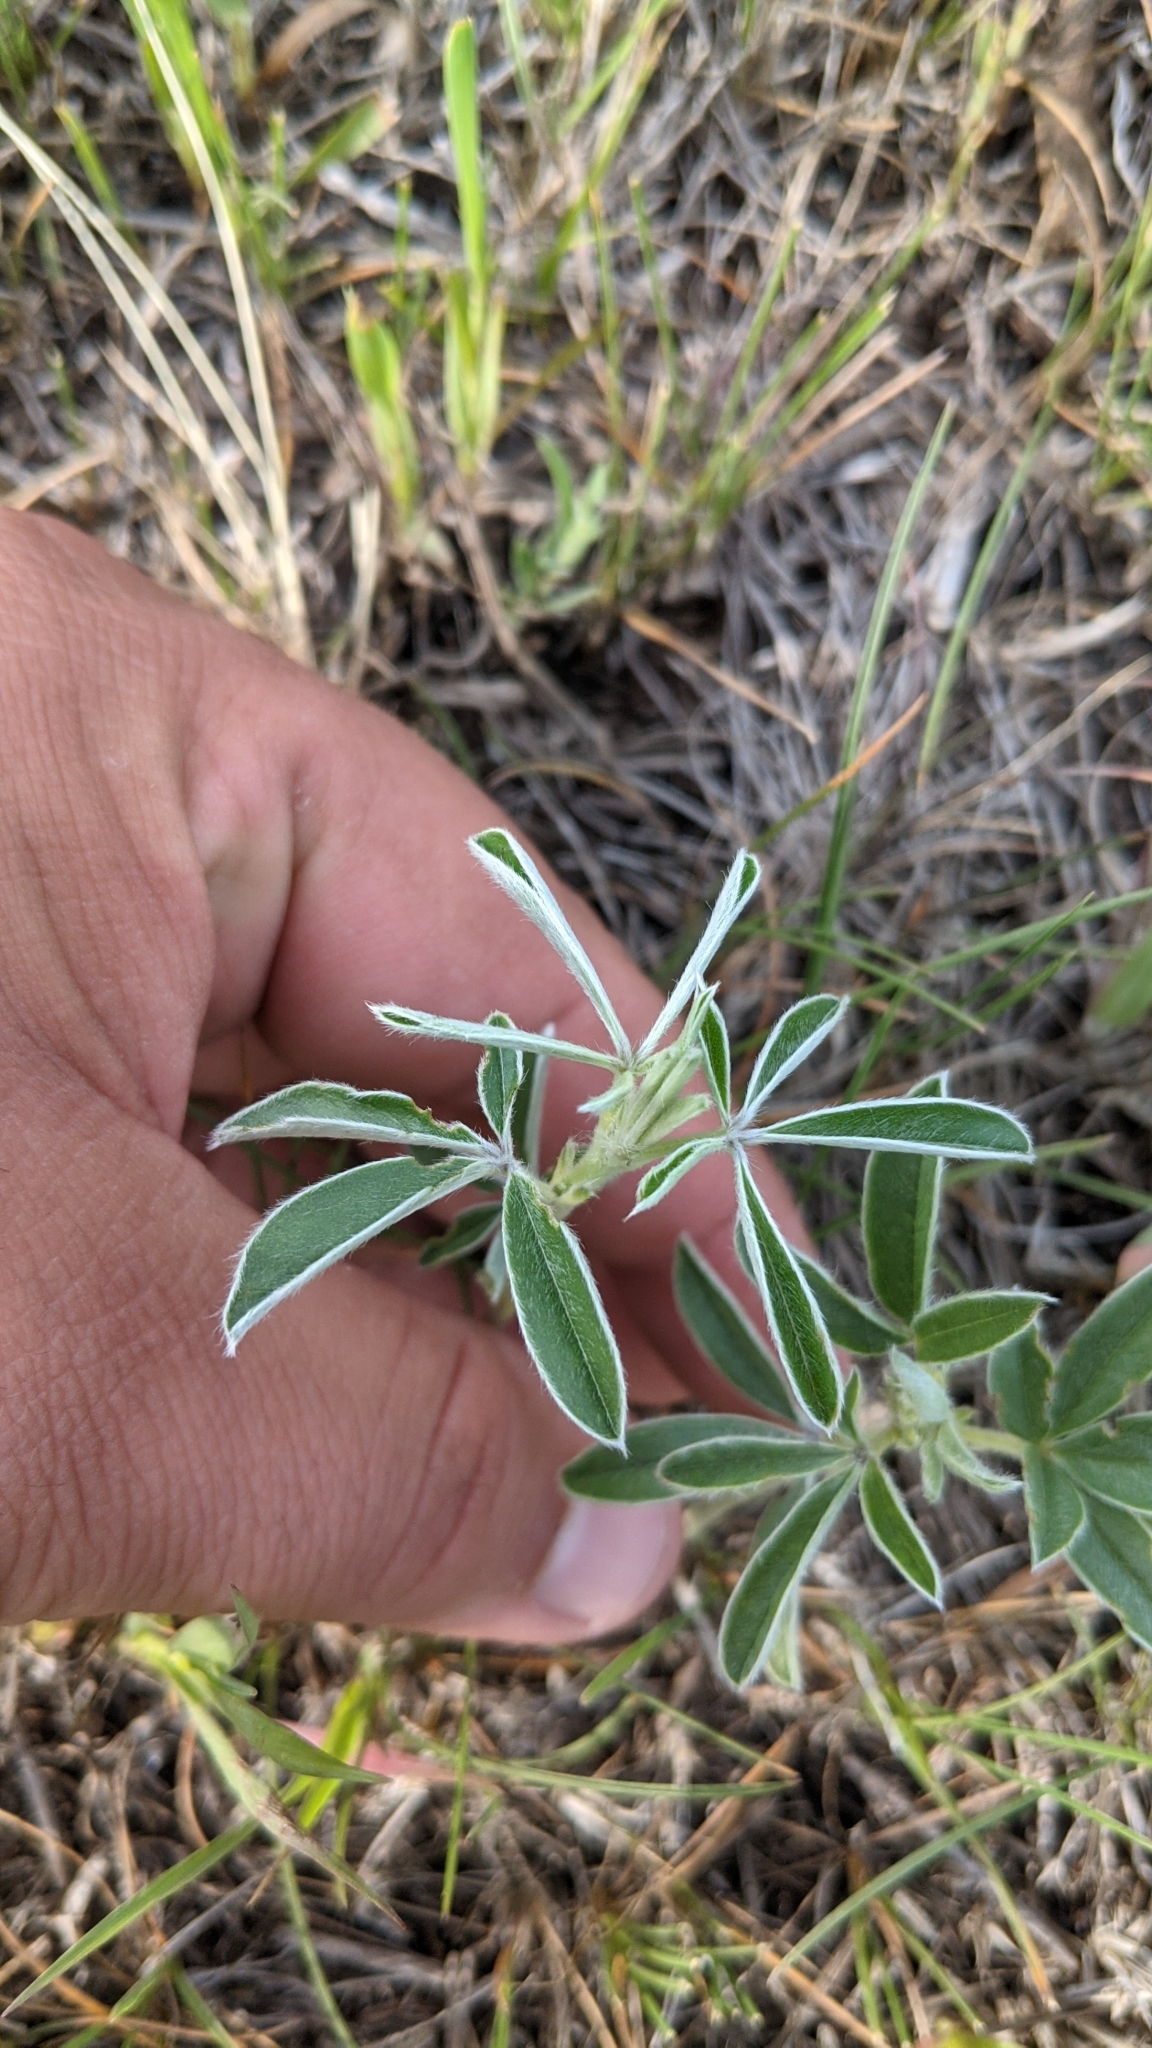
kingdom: Plantae
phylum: Tracheophyta
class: Magnoliopsida
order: Fabales
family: Fabaceae
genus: Pediomelum
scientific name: Pediomelum esculentum
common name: Indian-turnip
